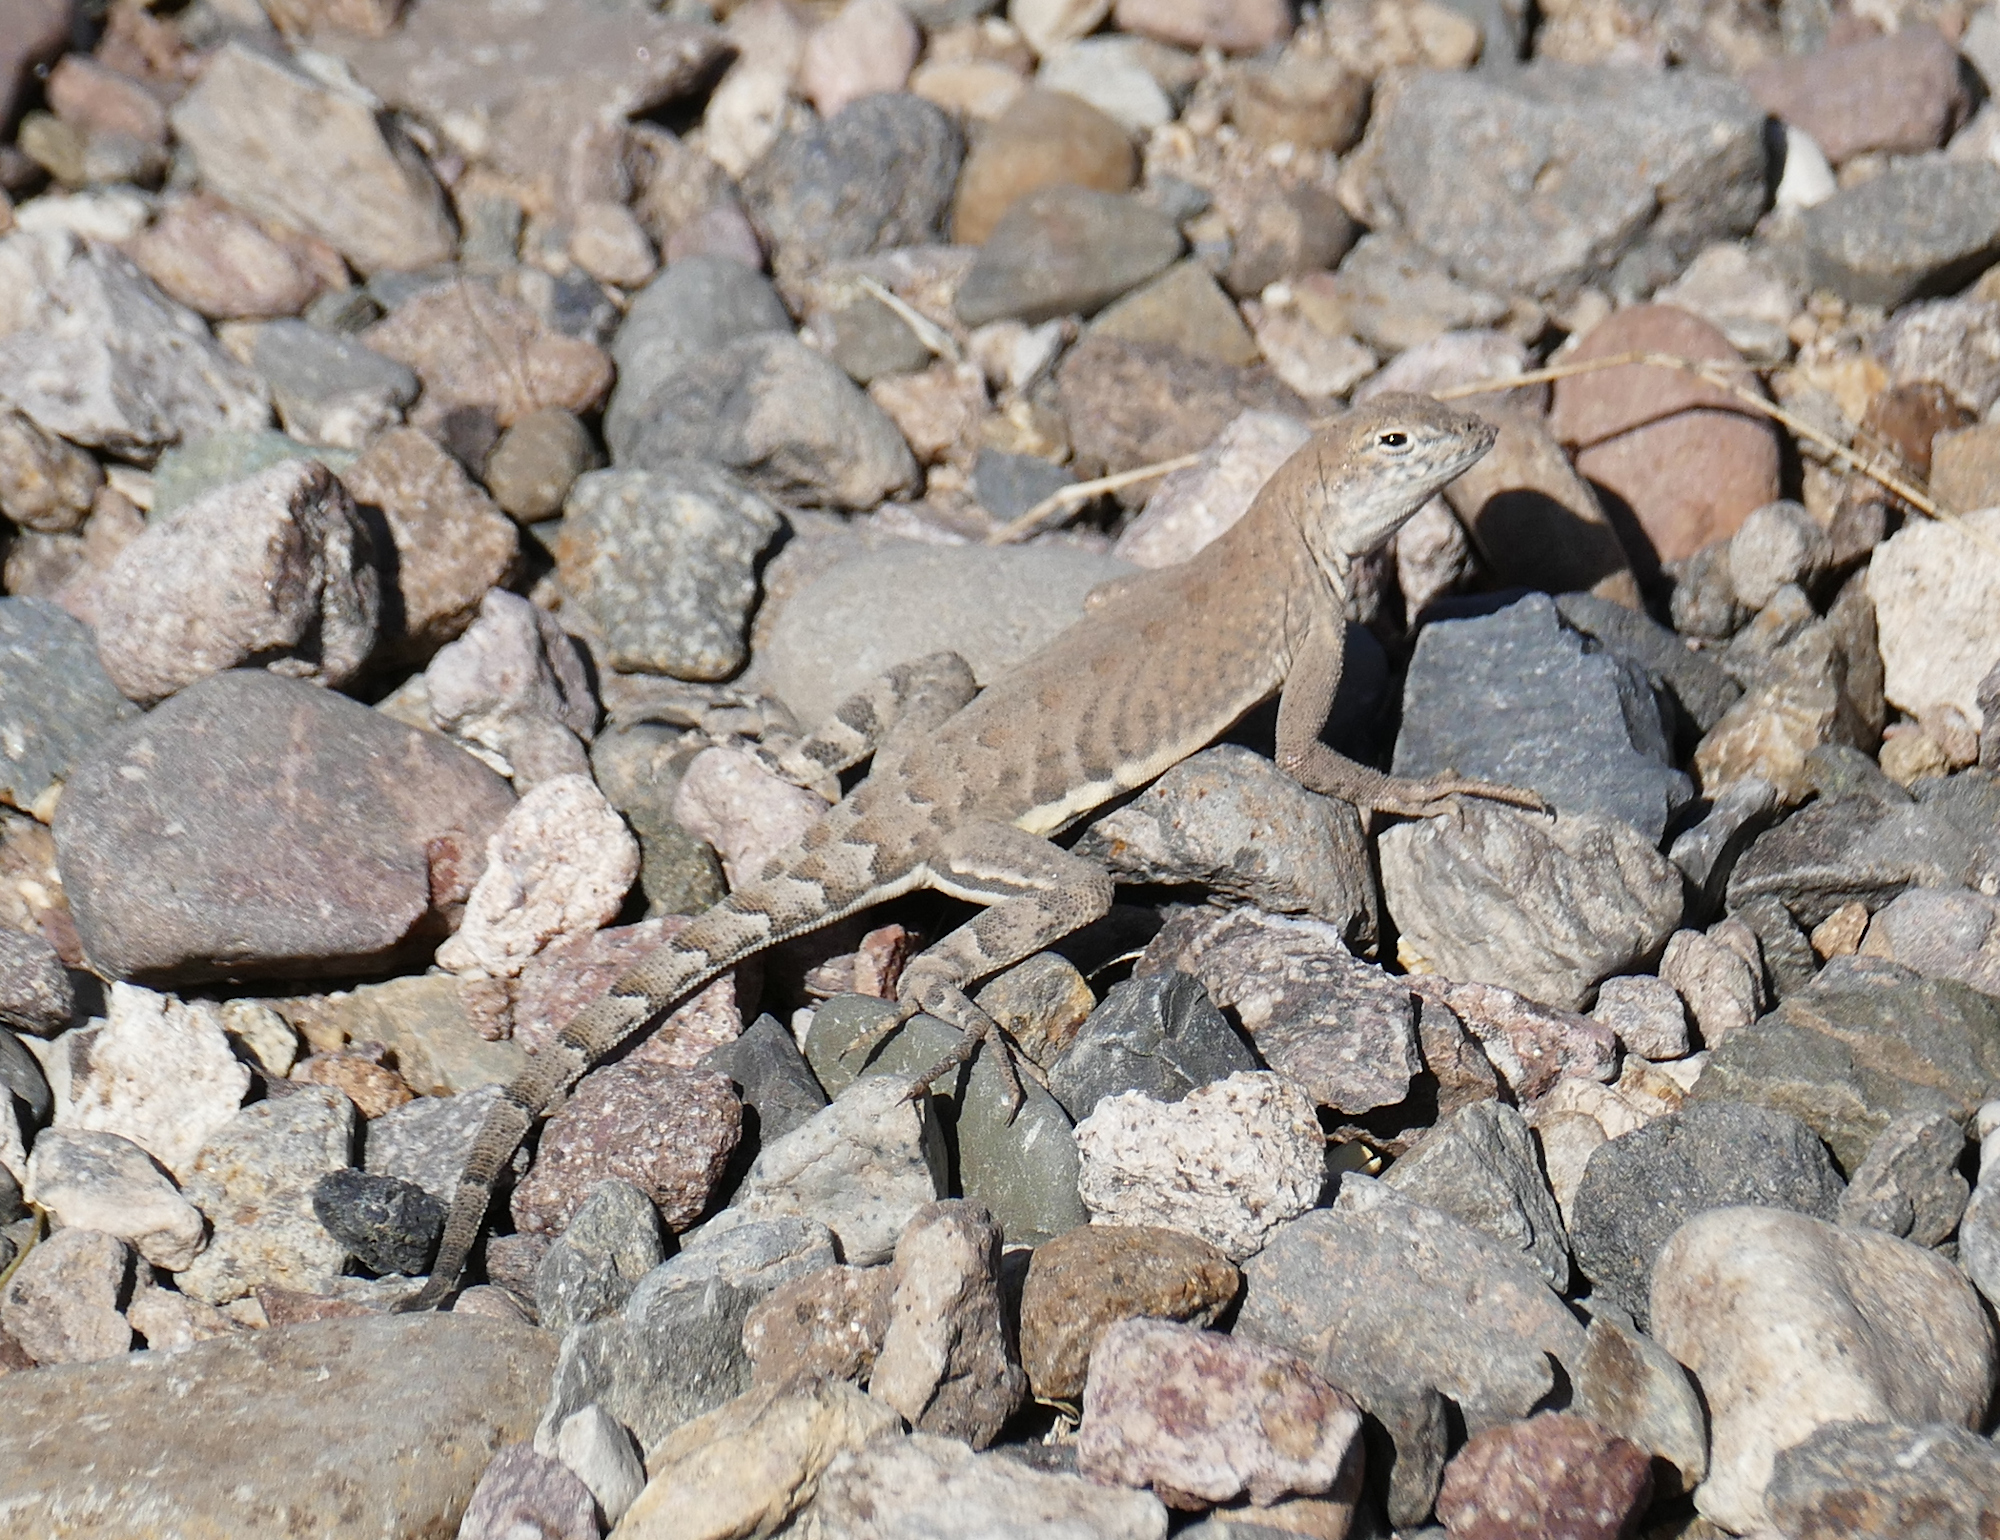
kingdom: Animalia
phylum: Chordata
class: Squamata
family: Phrynosomatidae
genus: Cophosaurus
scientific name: Cophosaurus texanus
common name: Greater earless lizard
